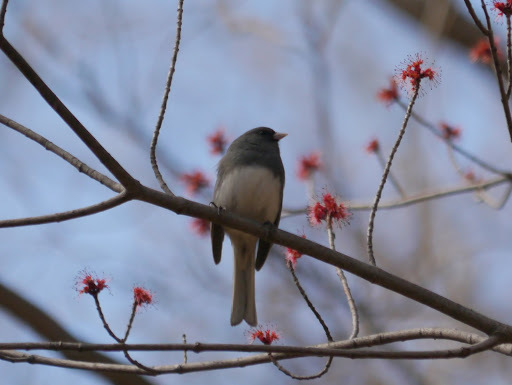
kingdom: Animalia
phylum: Chordata
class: Aves
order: Passeriformes
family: Passerellidae
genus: Junco
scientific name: Junco hyemalis
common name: Dark-eyed junco
